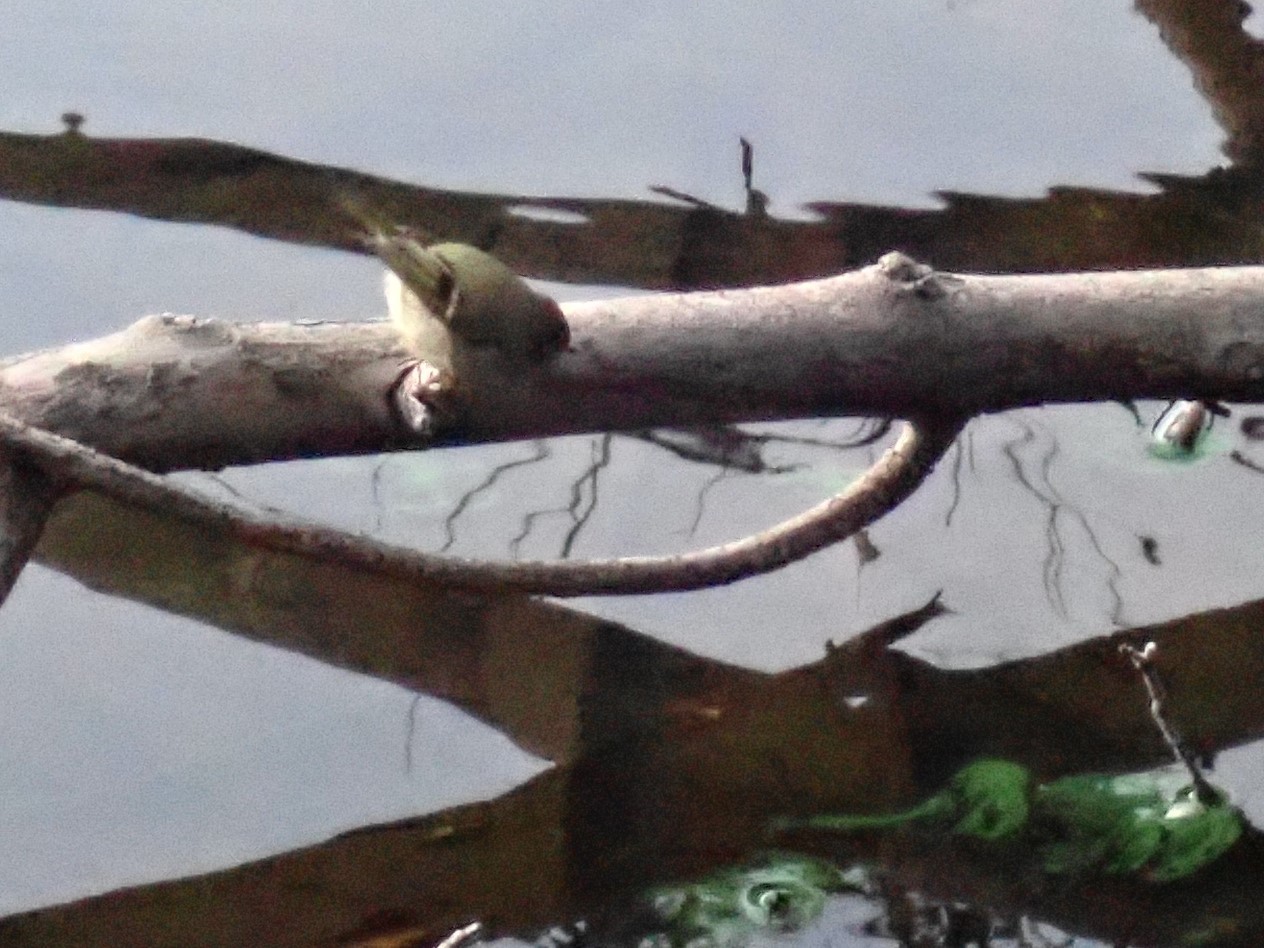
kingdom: Animalia
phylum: Chordata
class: Aves
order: Passeriformes
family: Regulidae
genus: Regulus
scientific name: Regulus calendula
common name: Ruby-crowned kinglet
